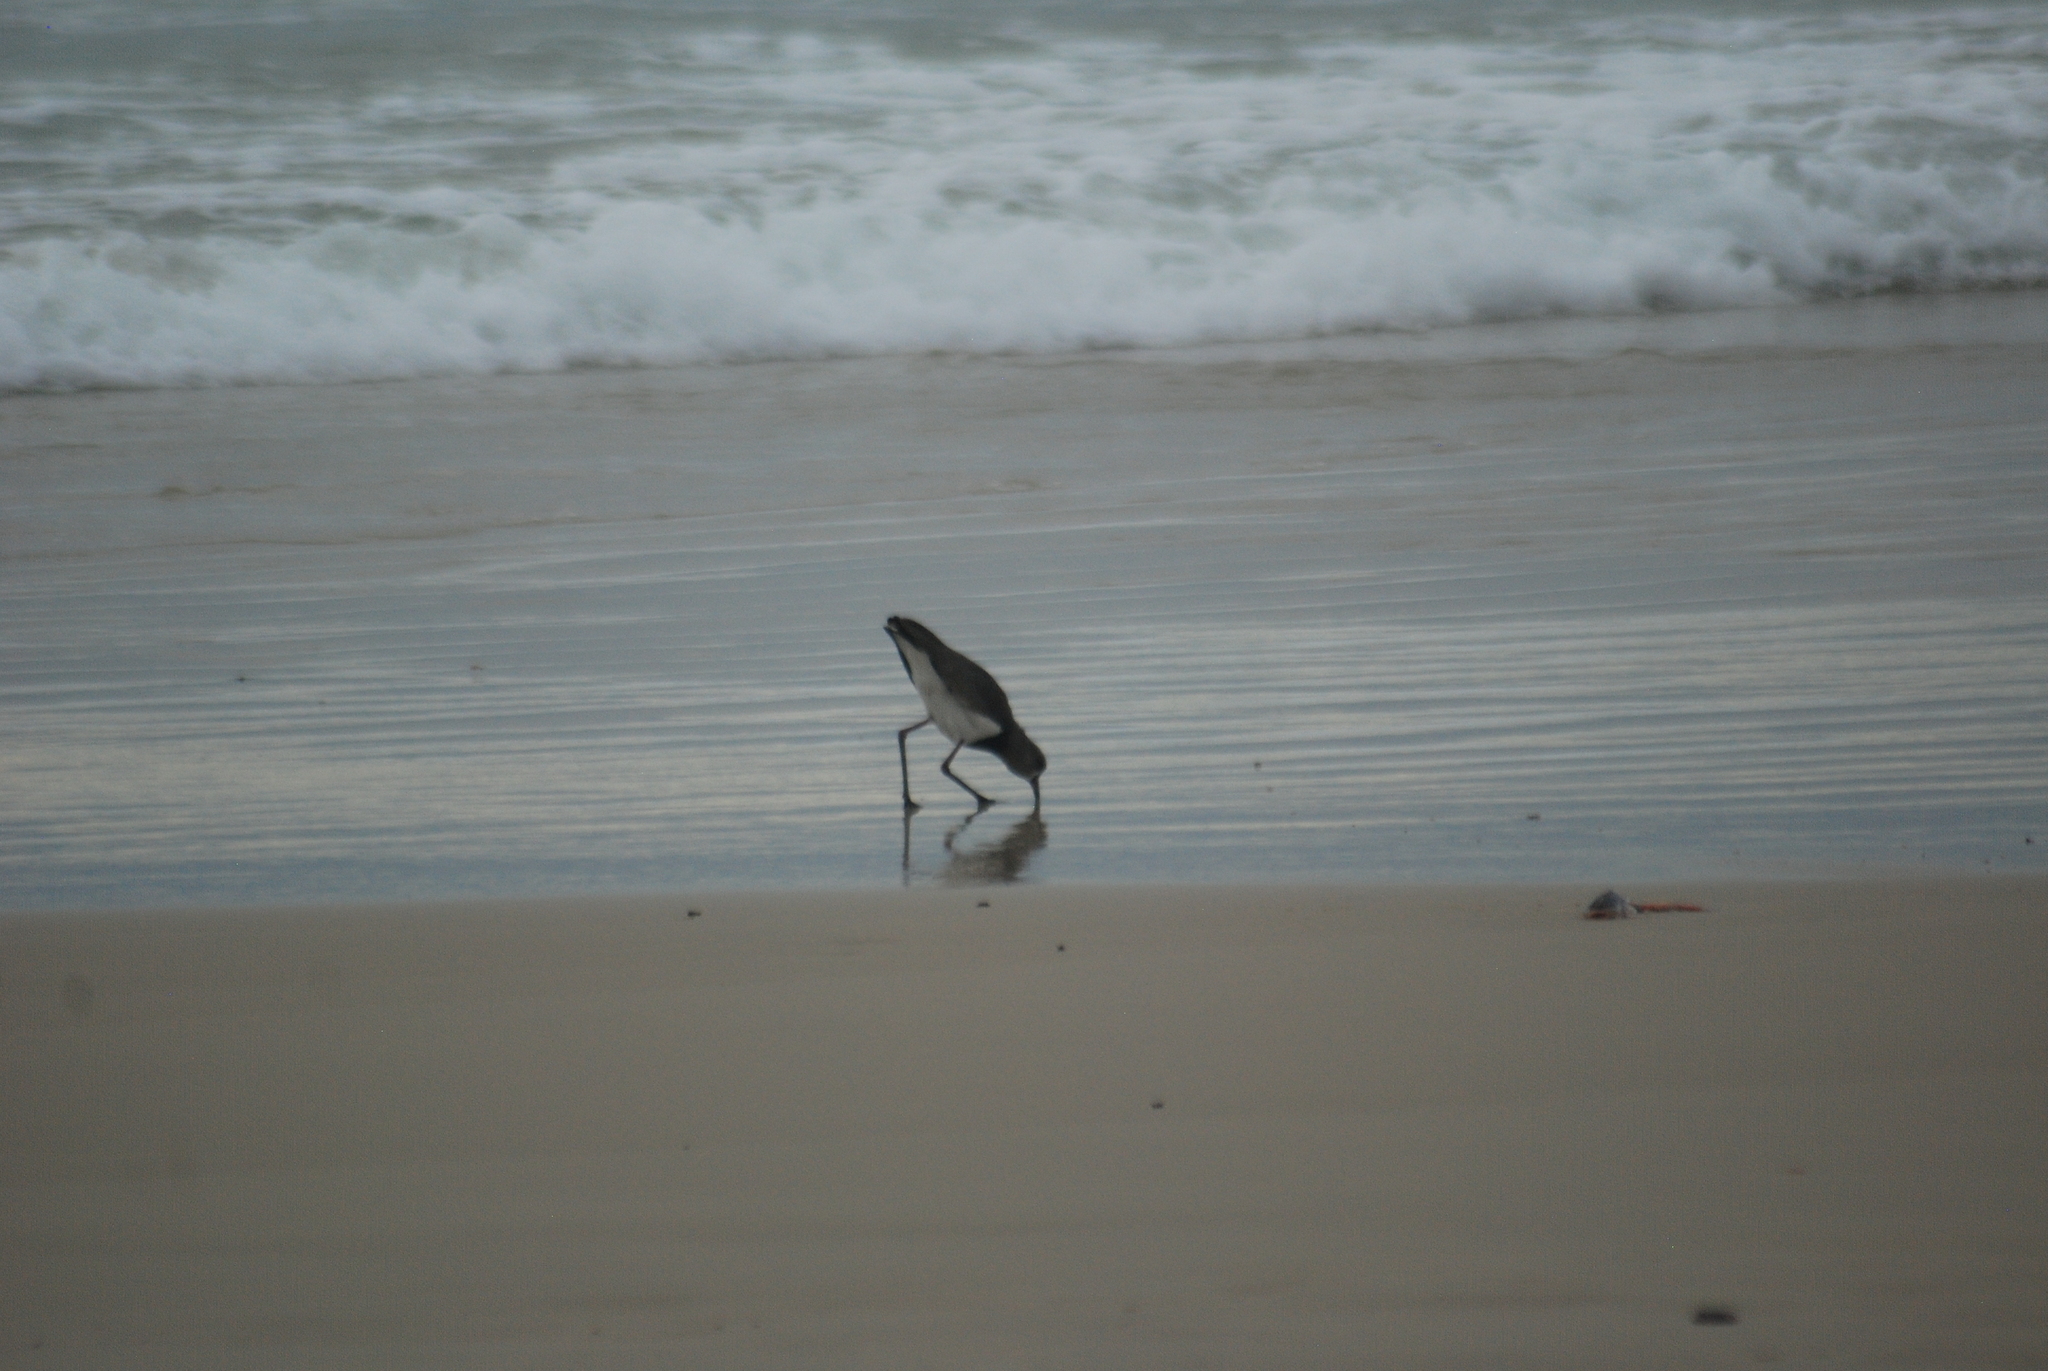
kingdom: Animalia
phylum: Chordata
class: Aves
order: Charadriiformes
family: Charadriidae
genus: Vanellus
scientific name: Vanellus chilensis
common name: Southern lapwing
